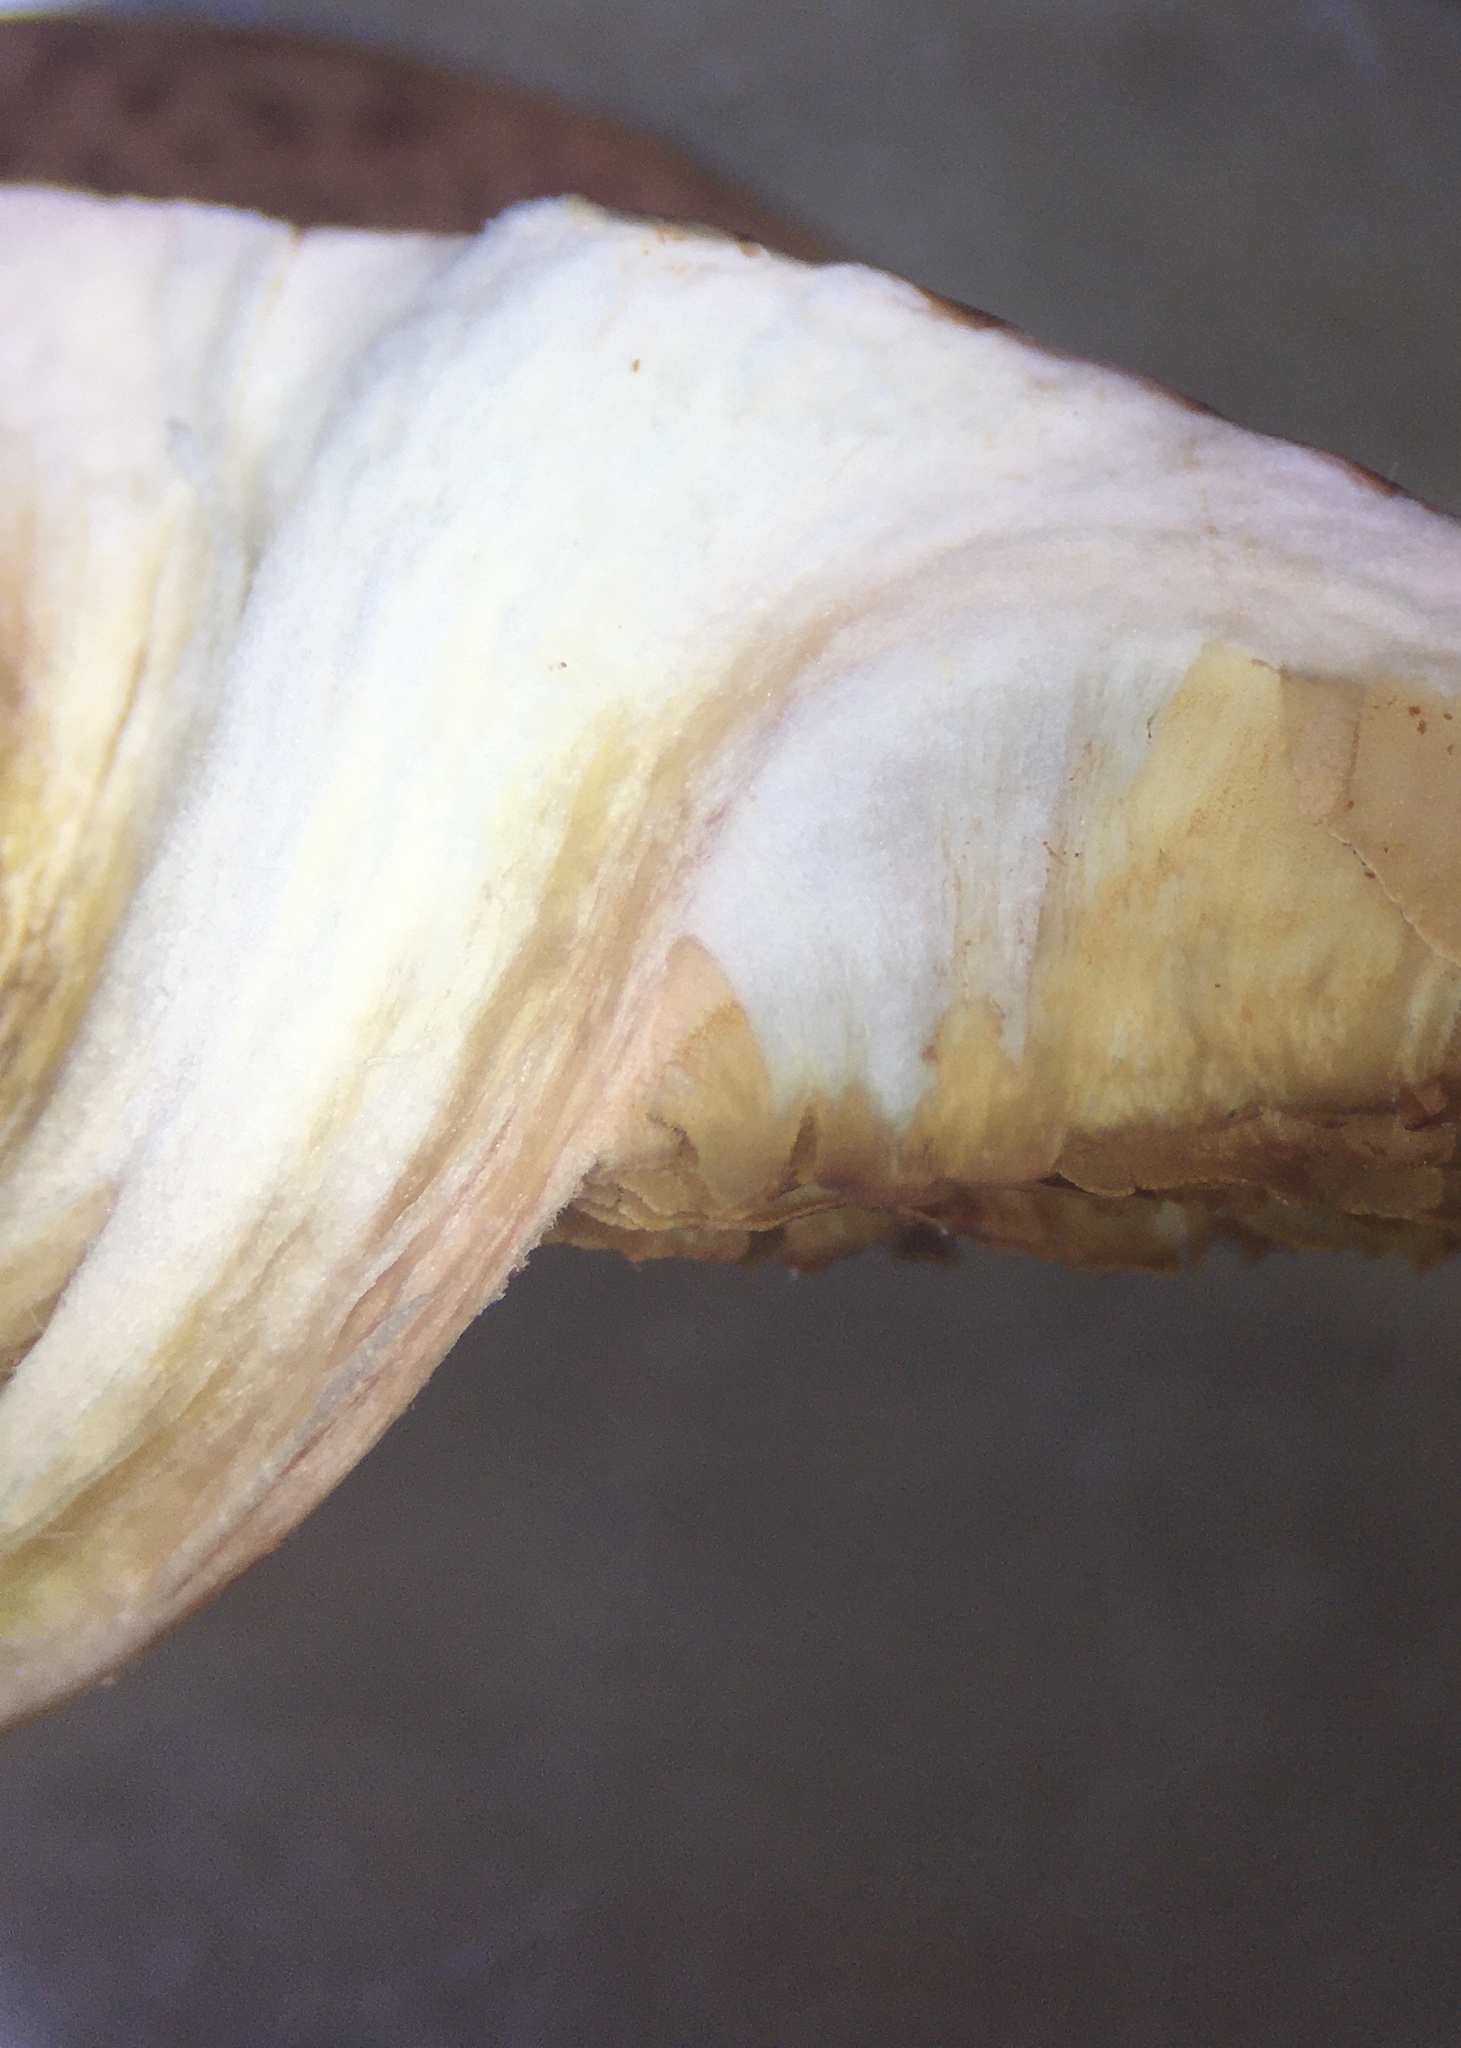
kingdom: Fungi
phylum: Basidiomycota
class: Agaricomycetes
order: Agaricales
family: Hymenogastraceae
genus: Gymnopilus
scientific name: Gymnopilus luteofolius
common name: Yellow-gilled gymnopilus
